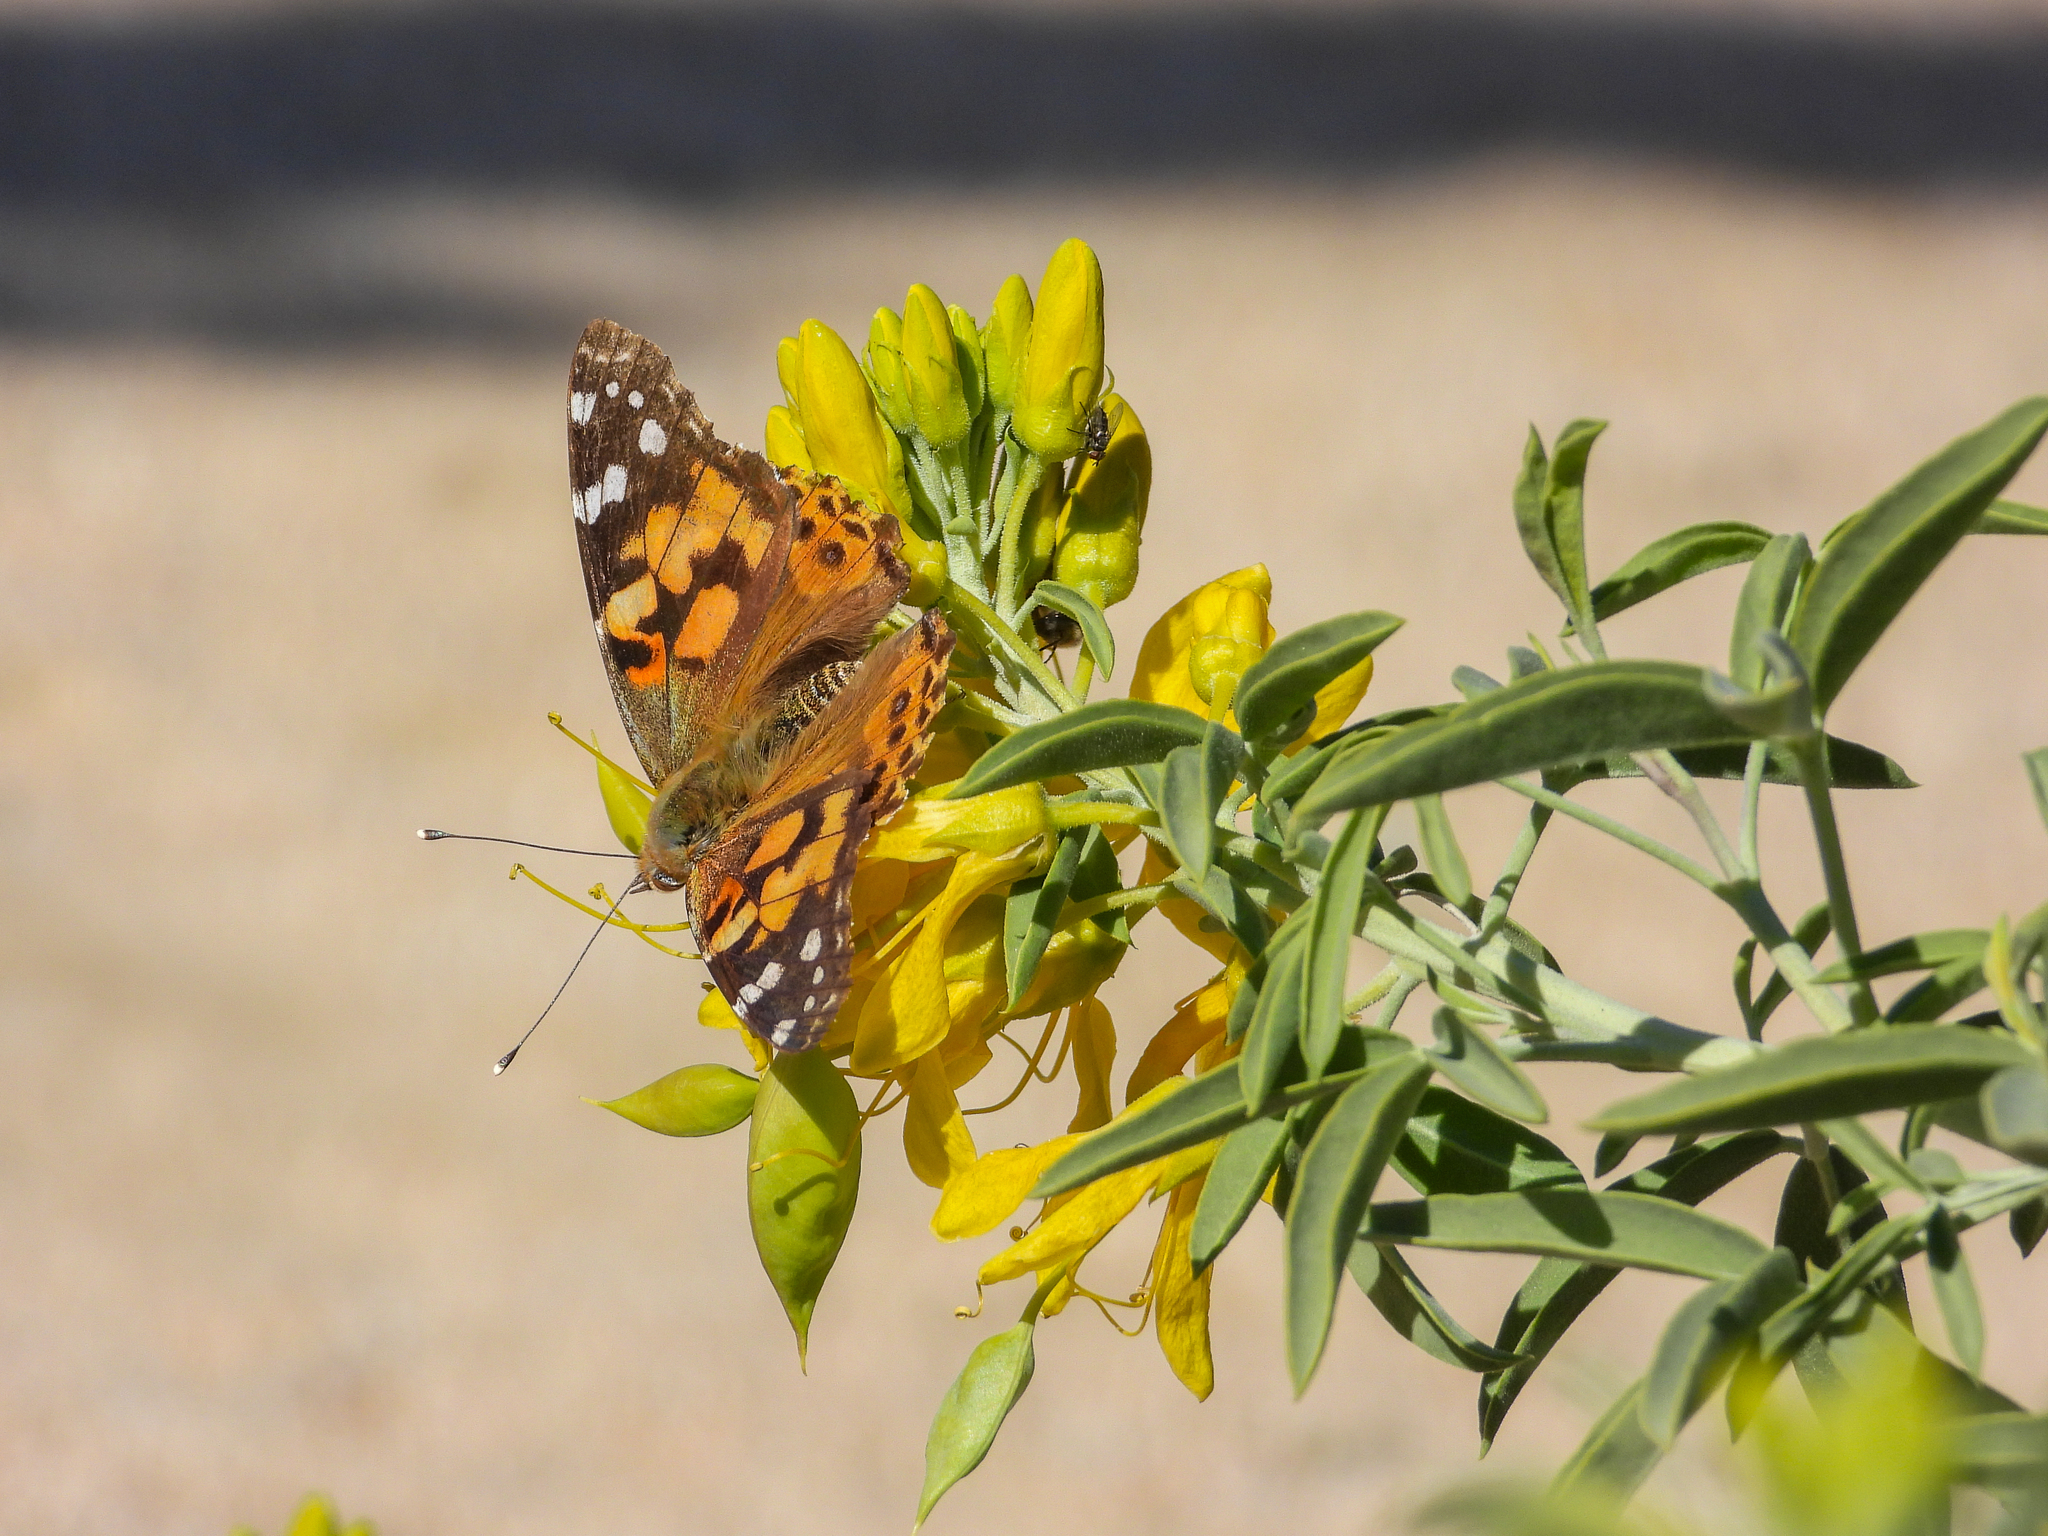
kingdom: Animalia
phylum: Arthropoda
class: Insecta
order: Lepidoptera
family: Nymphalidae
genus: Vanessa
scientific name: Vanessa cardui
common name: Painted lady
